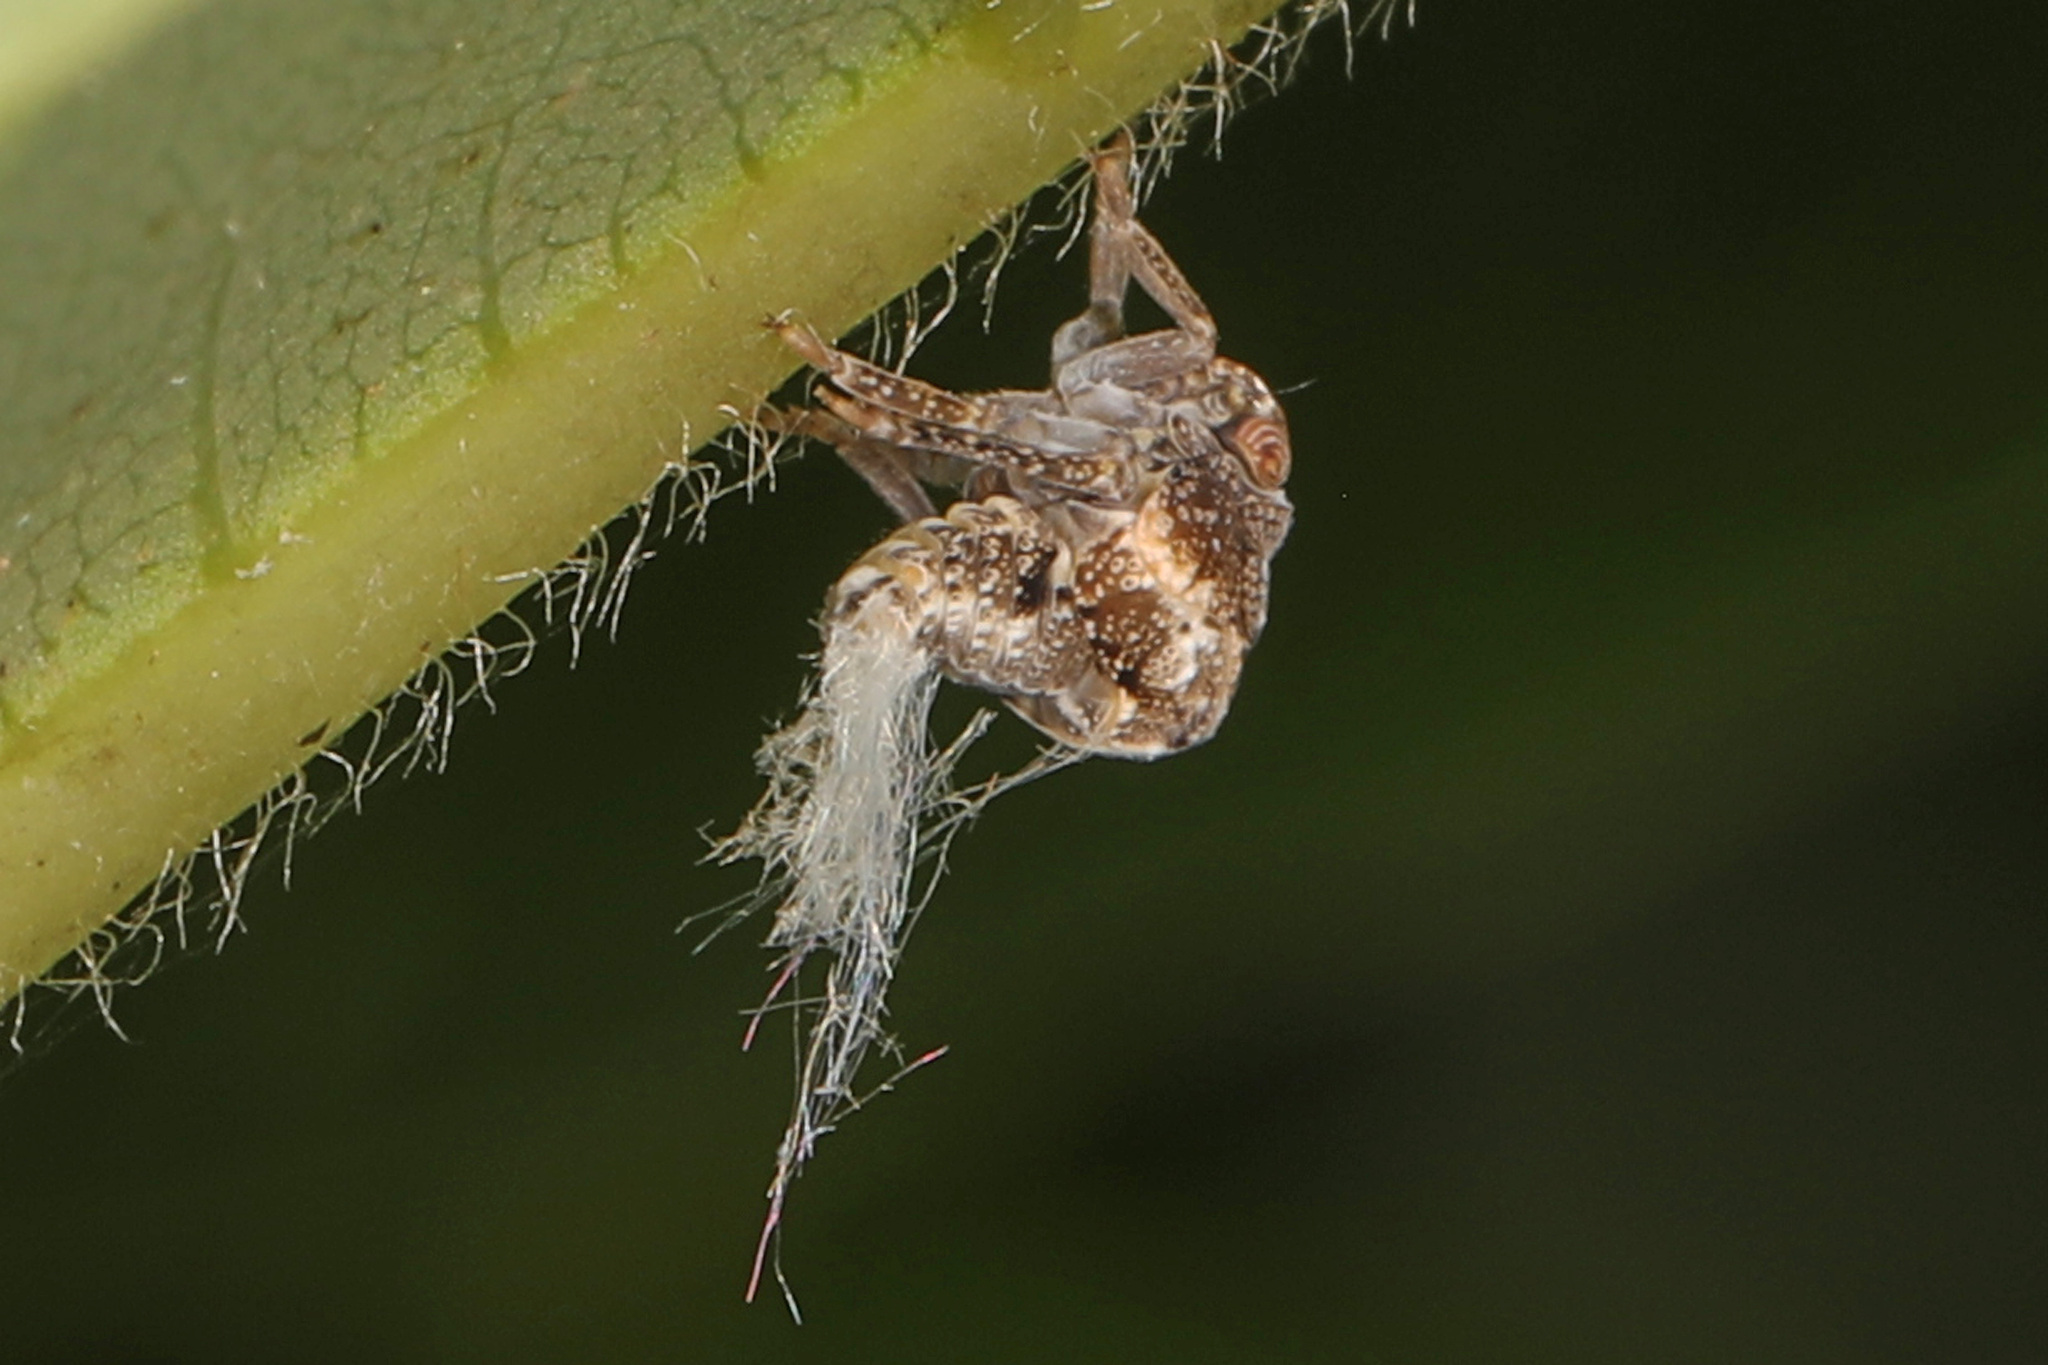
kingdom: Animalia
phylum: Arthropoda
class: Insecta
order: Hemiptera
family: Acanaloniidae
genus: Acanalonia
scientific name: Acanalonia bivittata
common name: Two-striped planthopper
